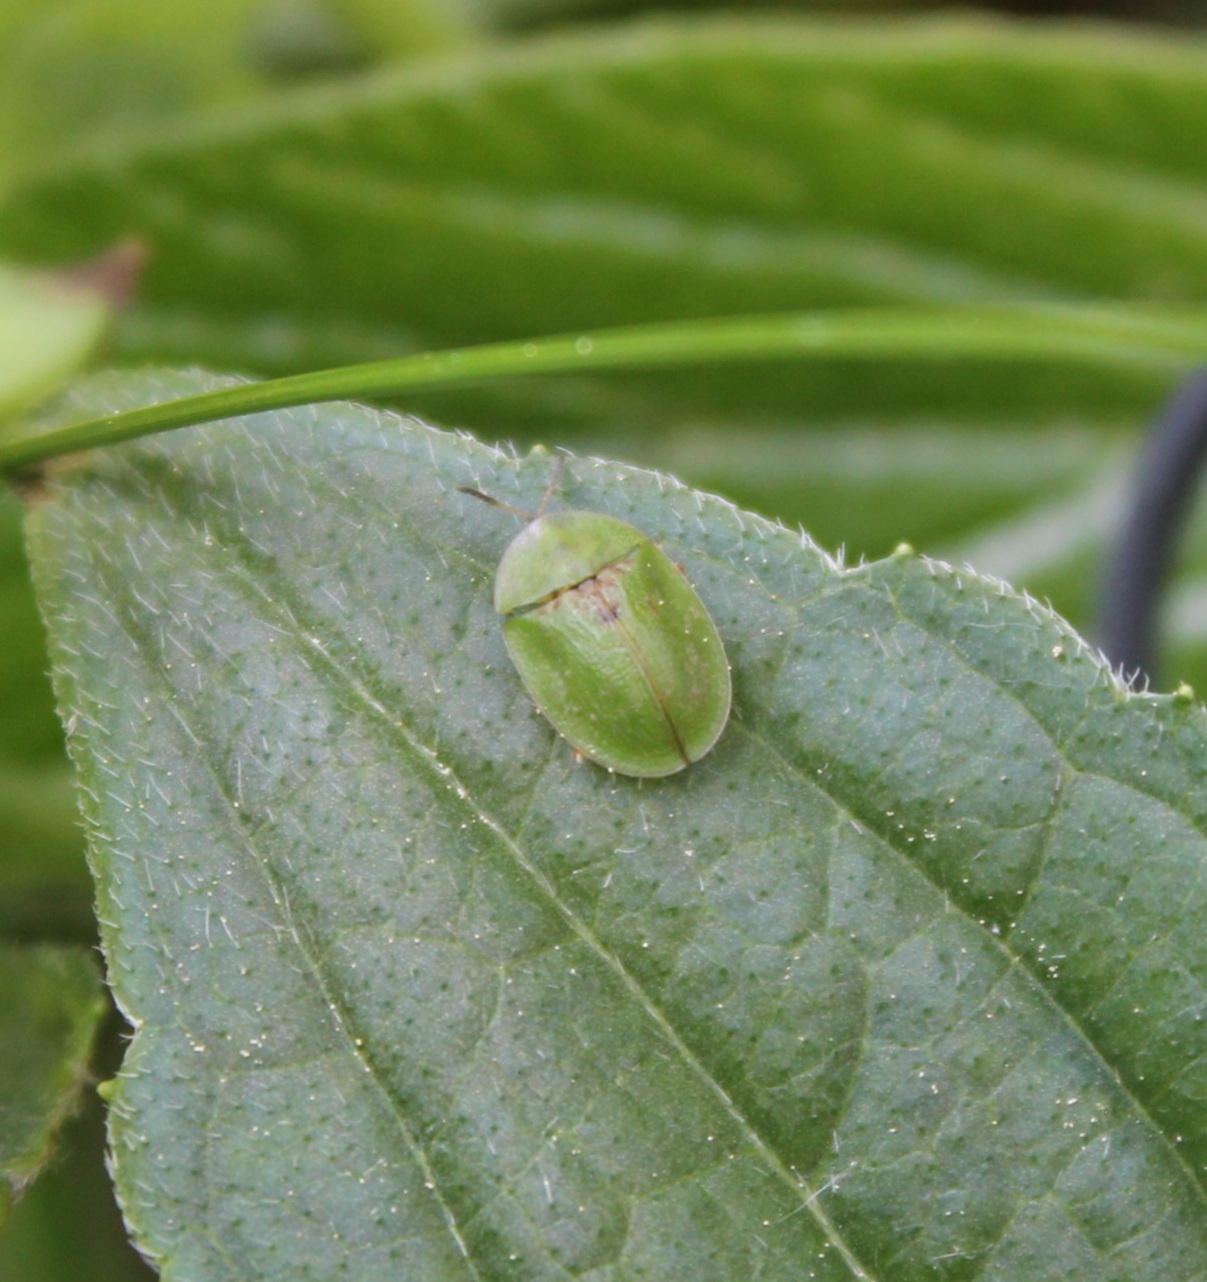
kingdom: Animalia
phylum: Arthropoda
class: Insecta
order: Coleoptera
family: Chrysomelidae
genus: Cassida
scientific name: Cassida rubiginosa
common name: Thistle tortoise beetle
